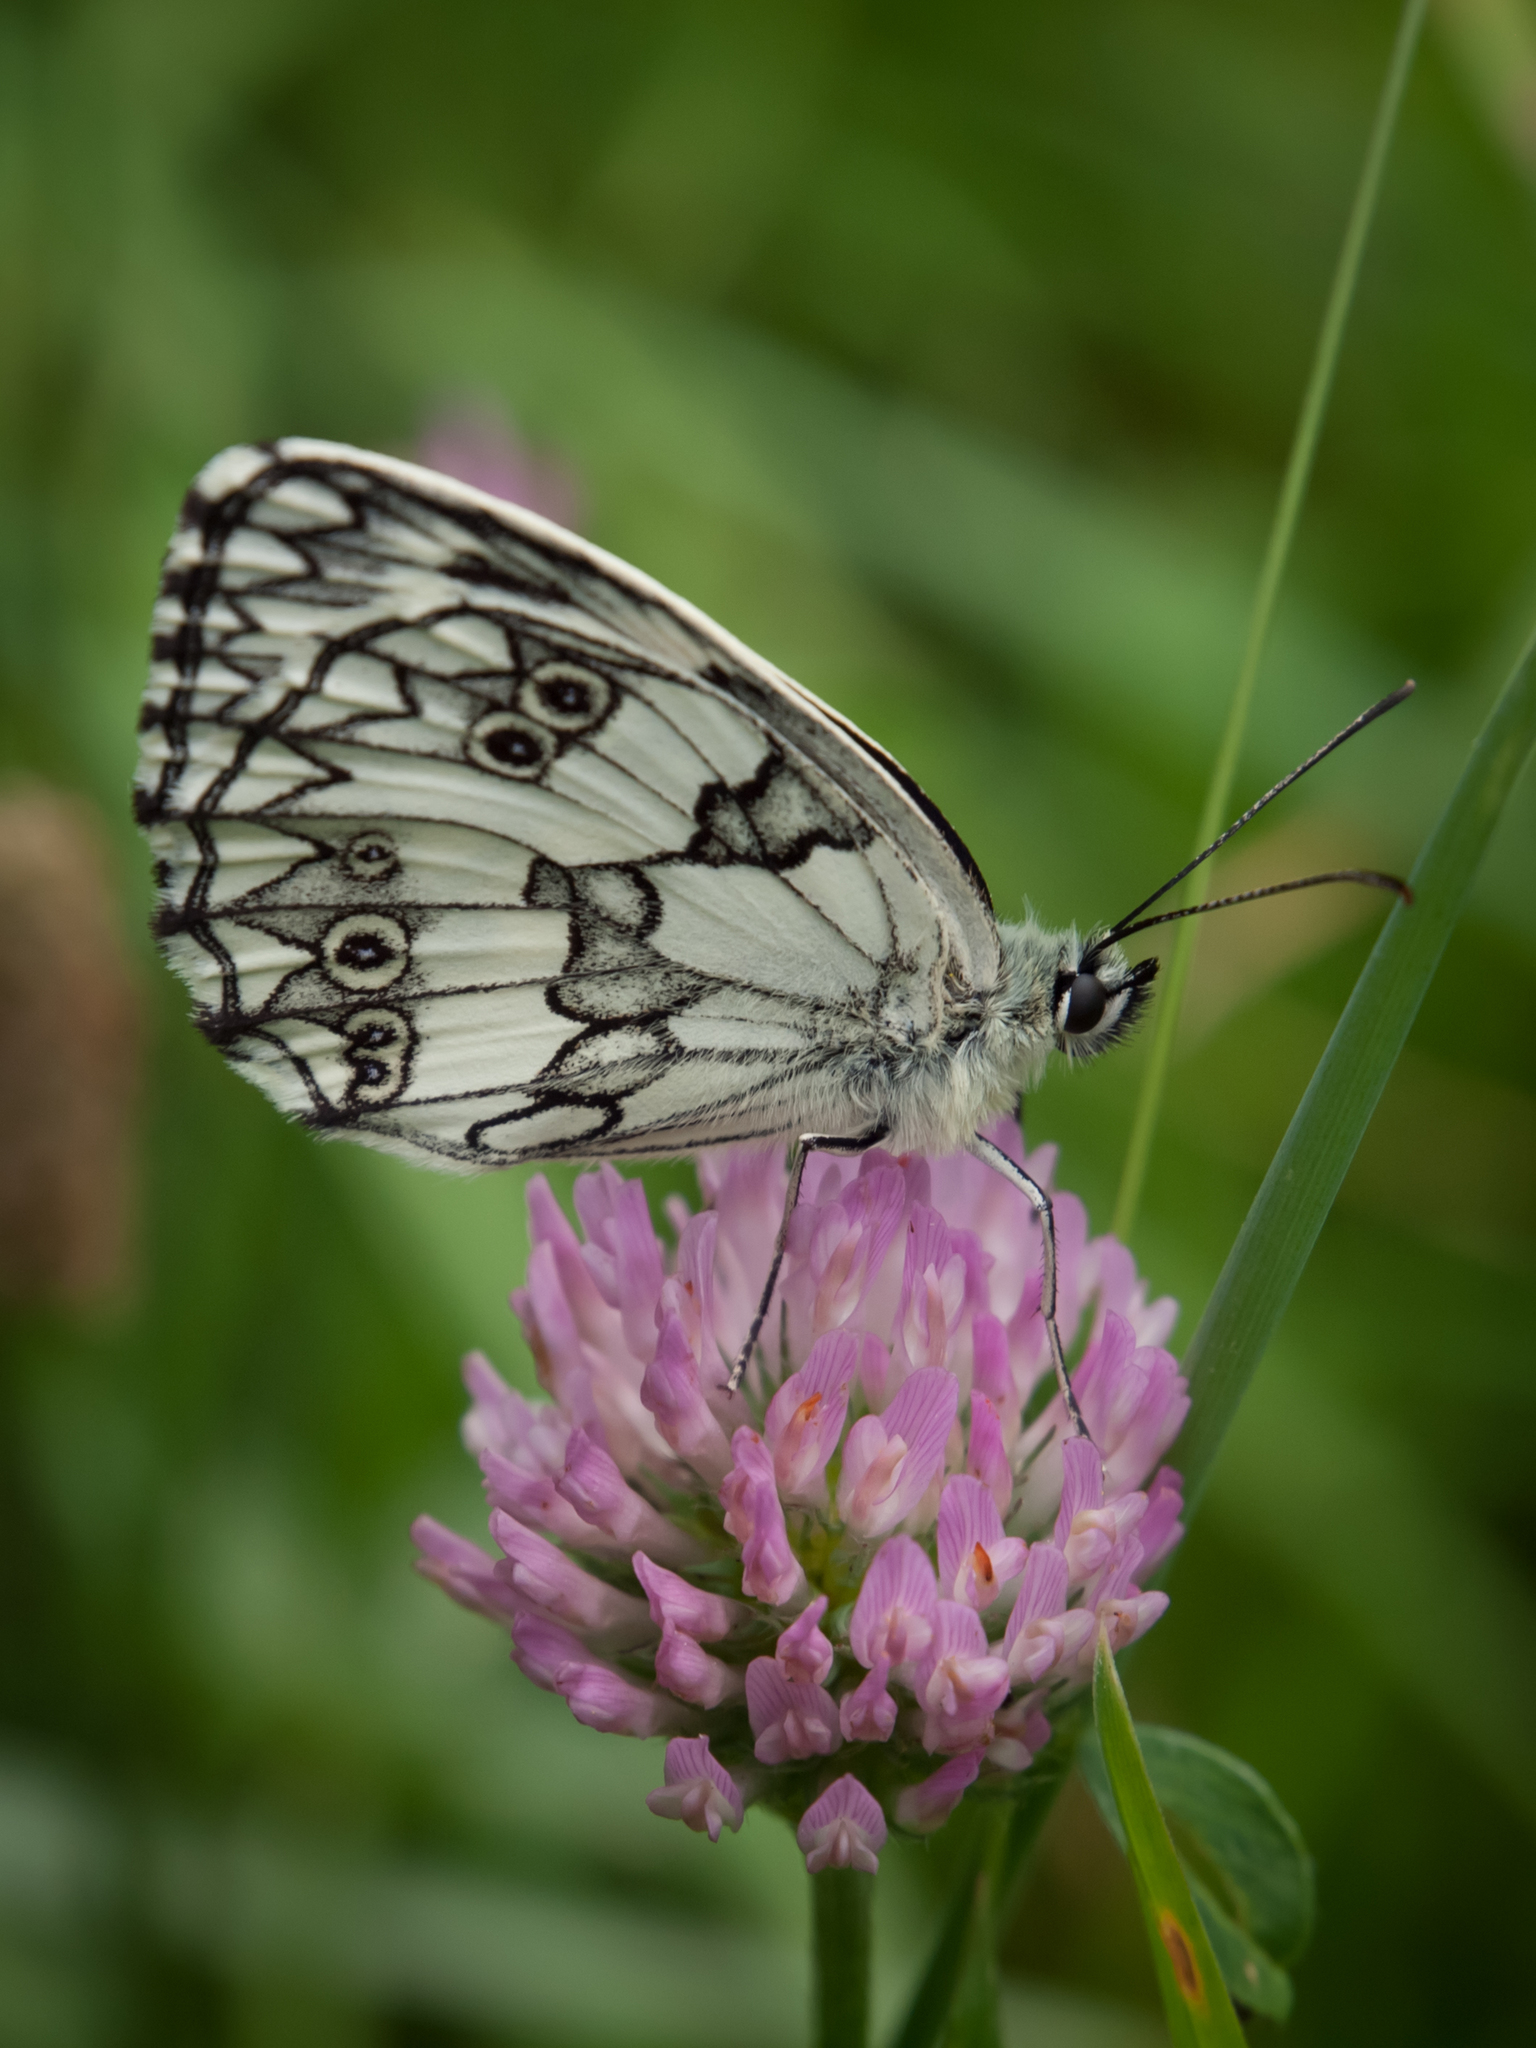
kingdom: Animalia
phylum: Arthropoda
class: Insecta
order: Lepidoptera
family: Nymphalidae
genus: Melanargia
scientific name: Melanargia galathea
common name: Marbled white
